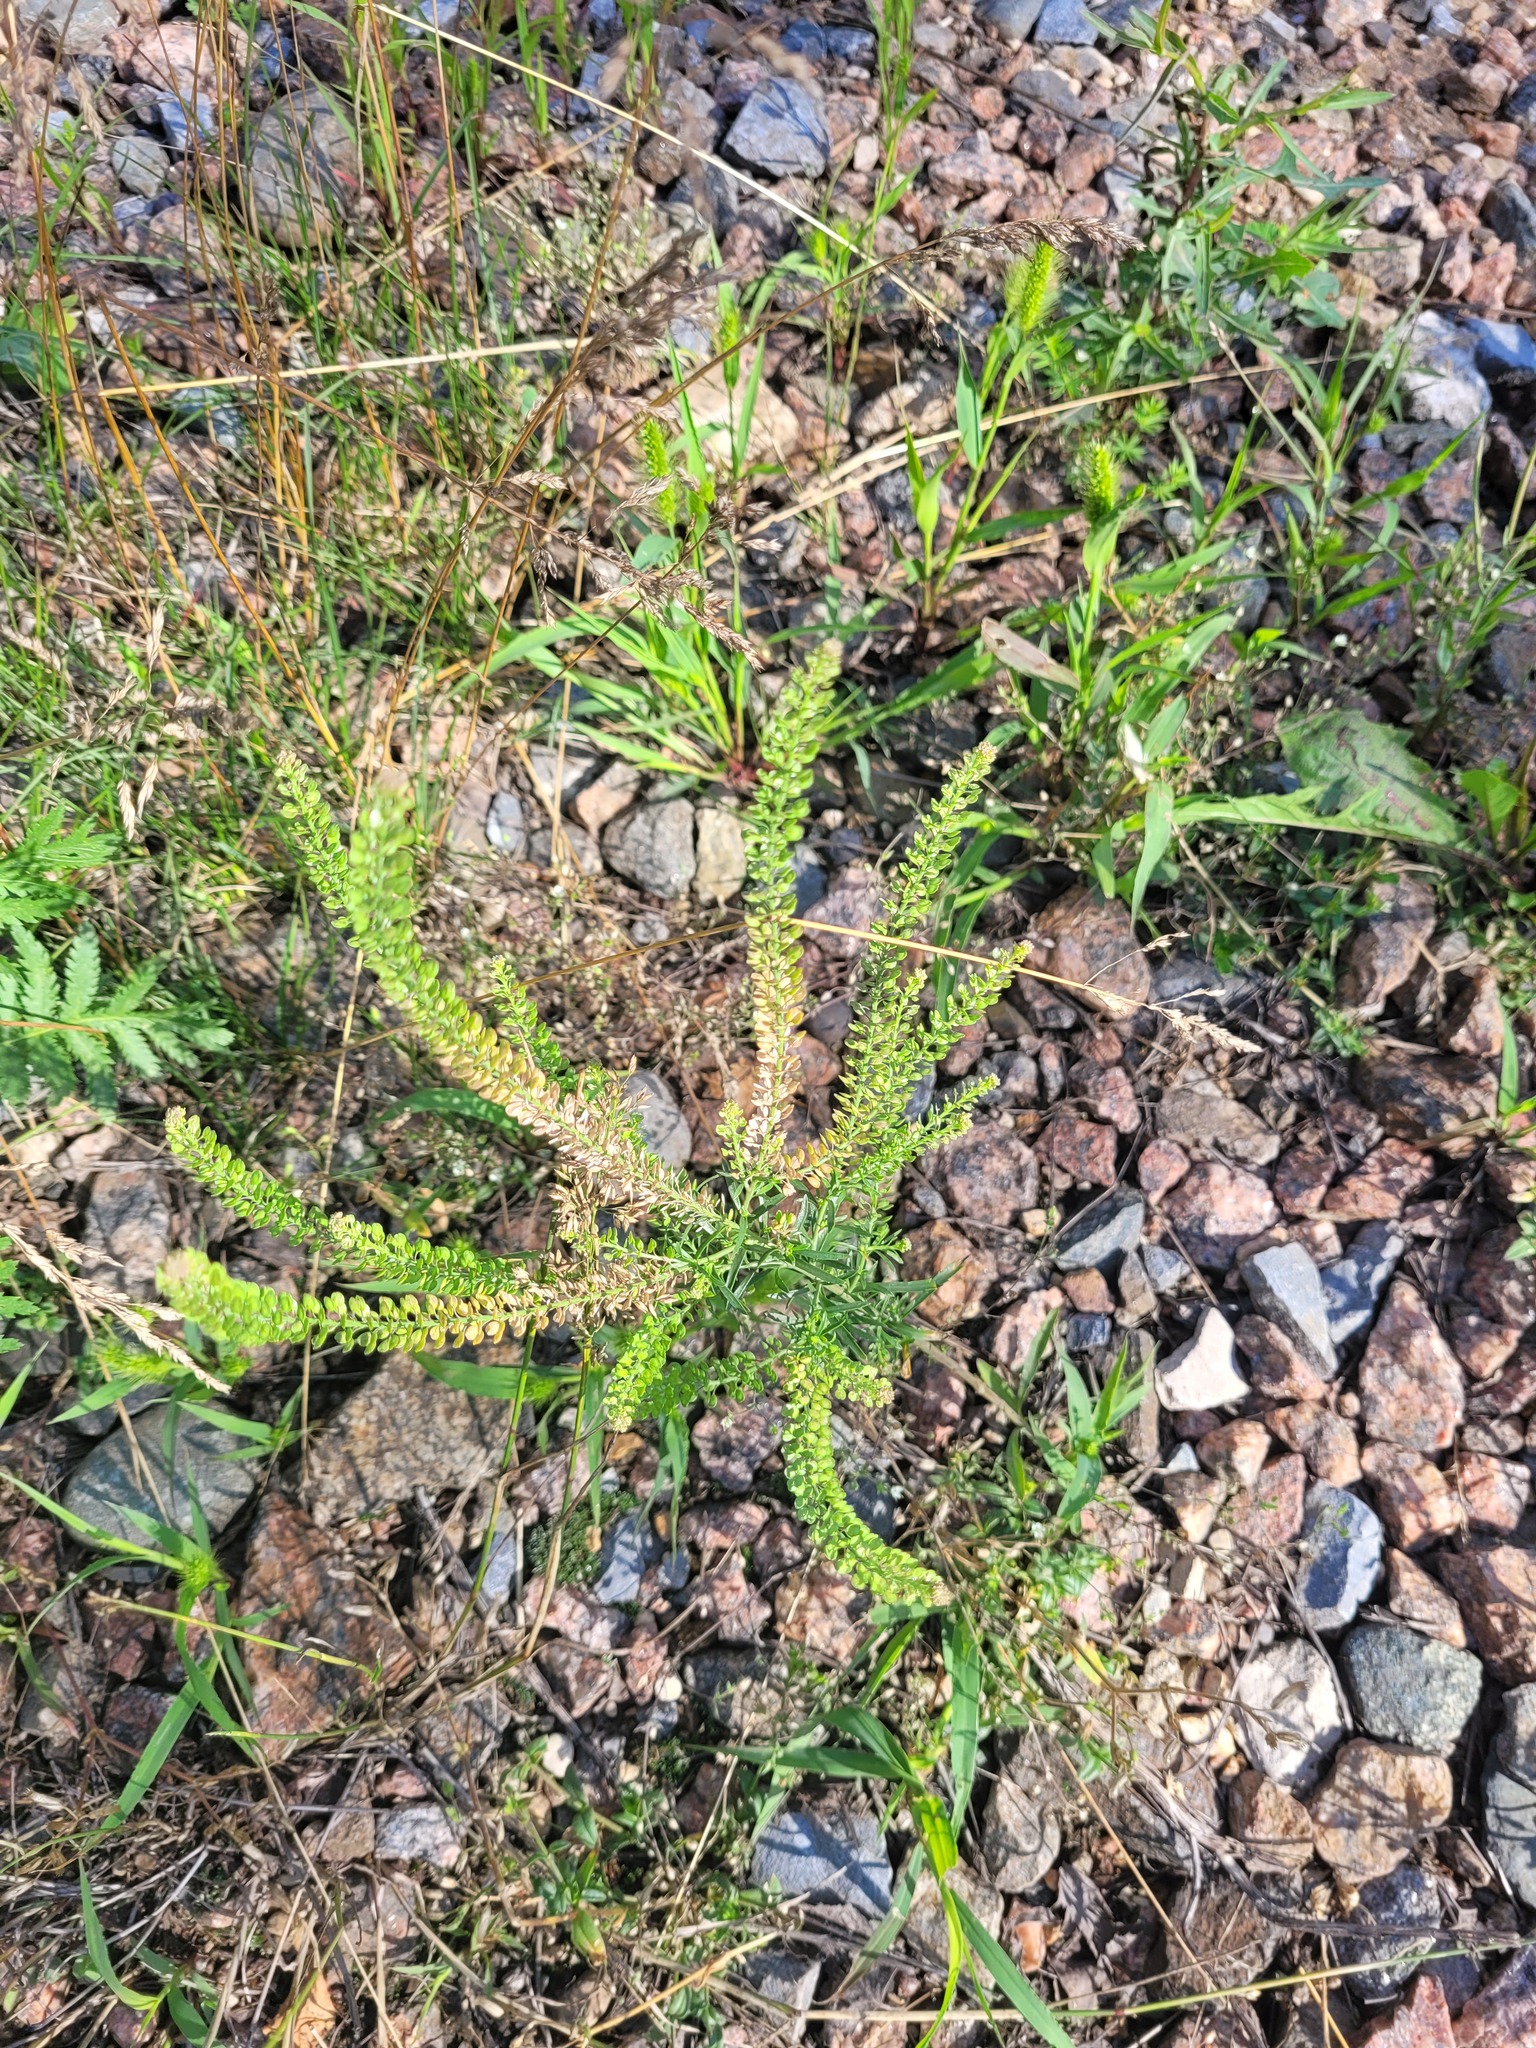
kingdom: Plantae
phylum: Tracheophyta
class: Magnoliopsida
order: Brassicales
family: Brassicaceae
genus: Lepidium
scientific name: Lepidium densiflorum
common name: Miner's pepperwort
